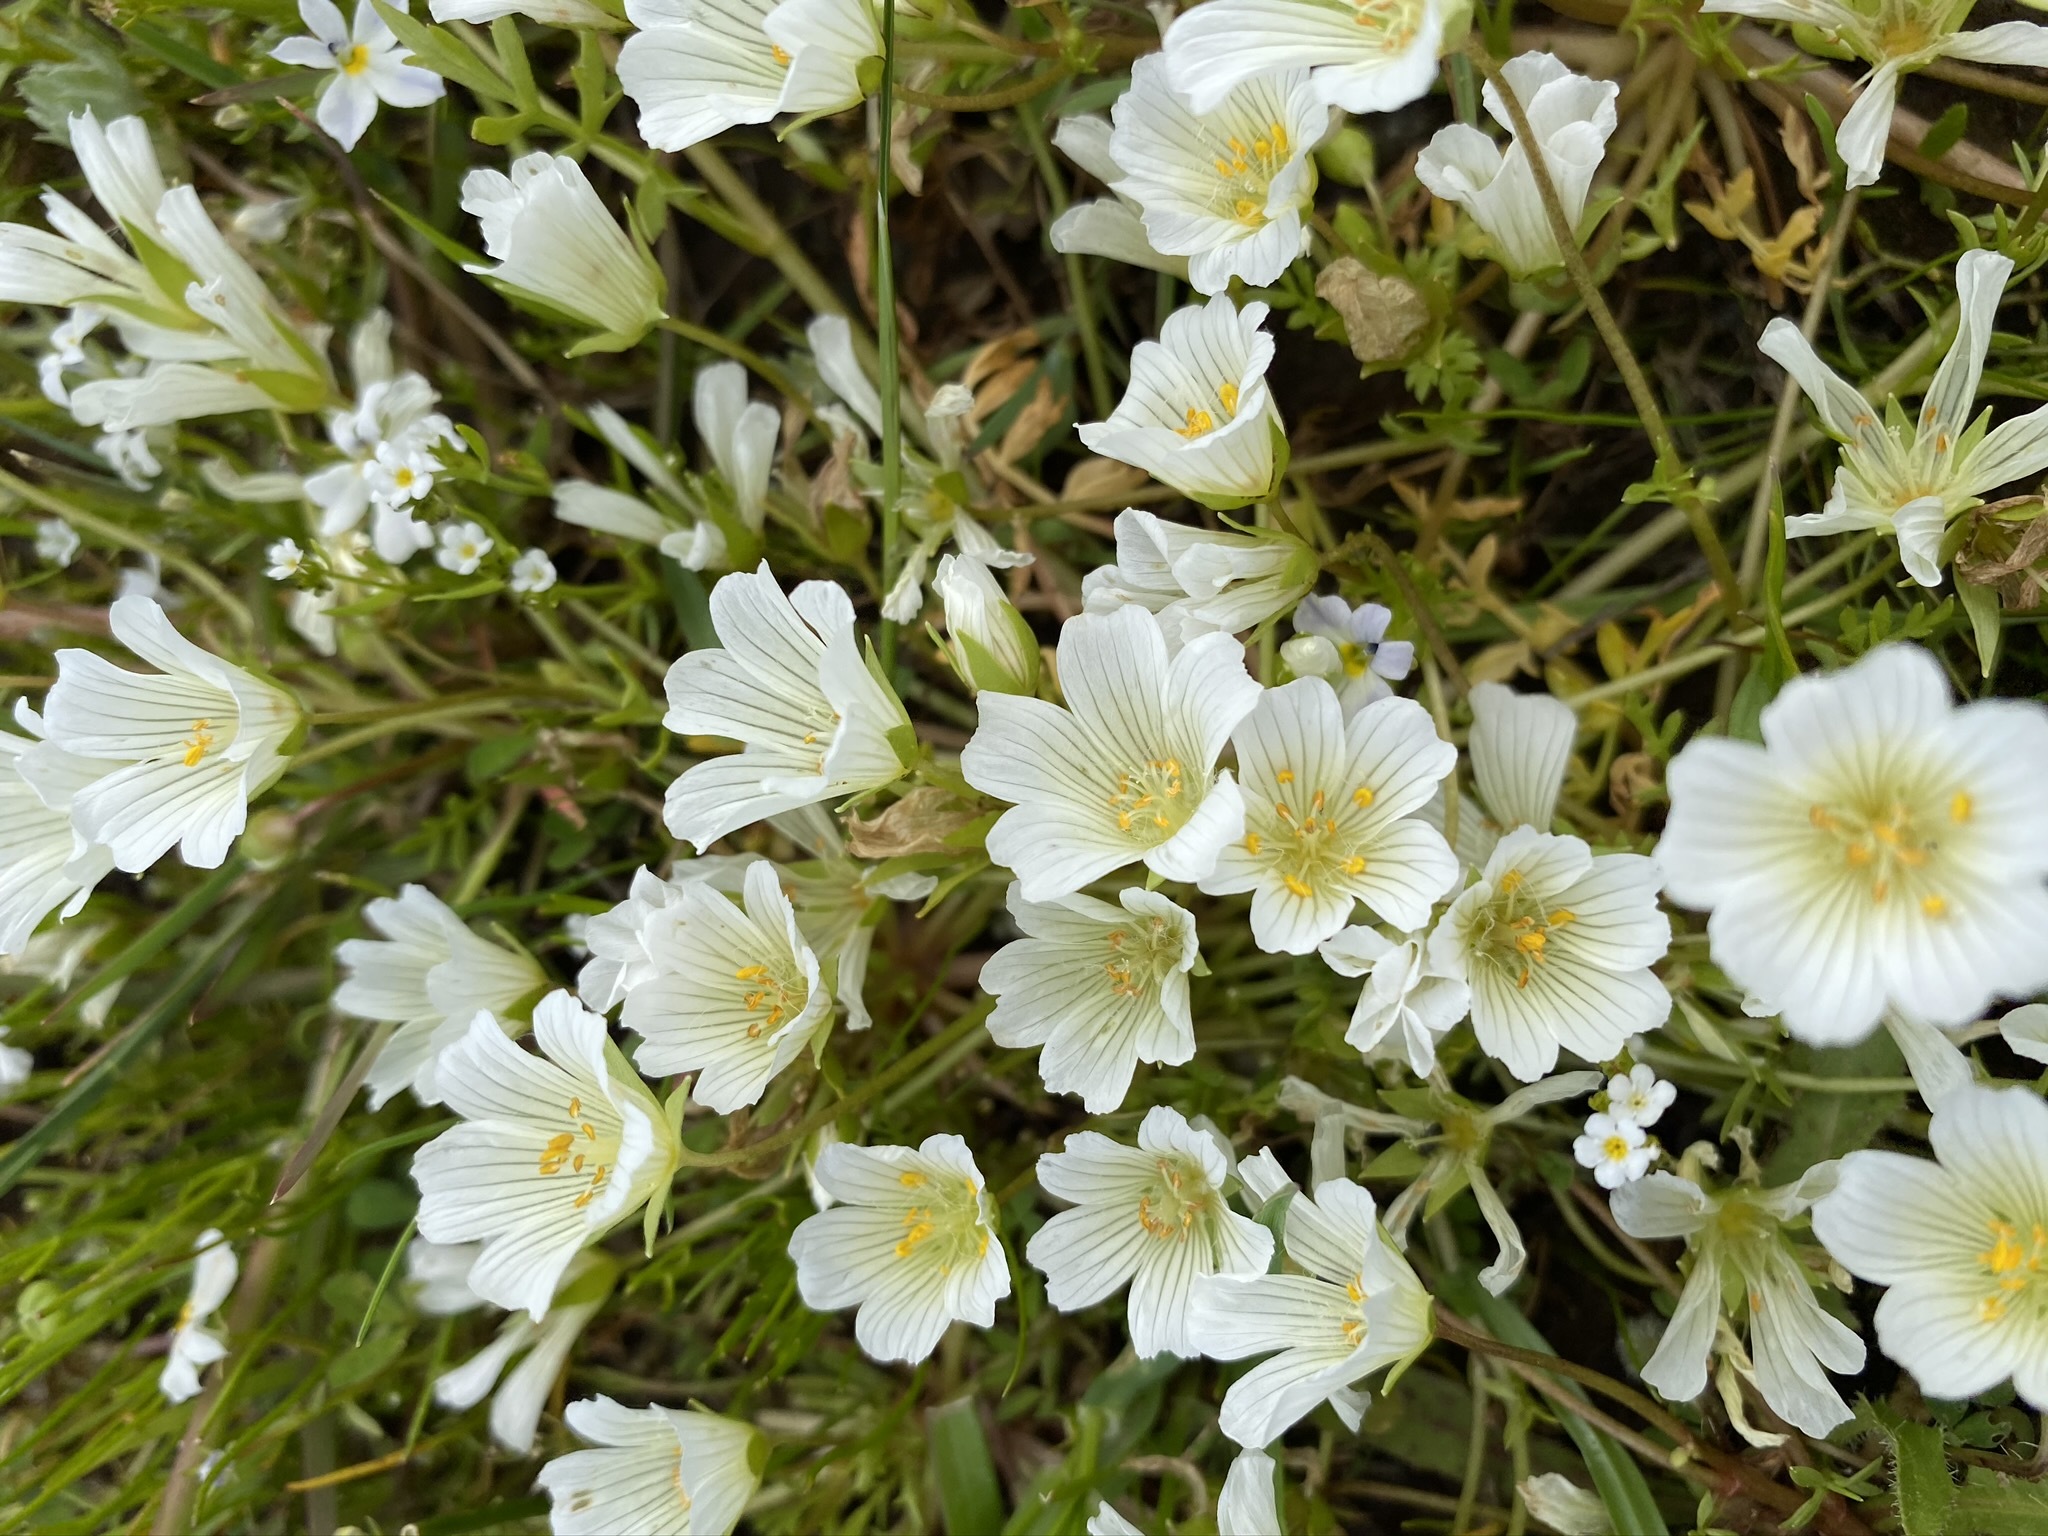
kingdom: Plantae
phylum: Tracheophyta
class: Magnoliopsida
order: Brassicales
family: Limnanthaceae
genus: Limnanthes
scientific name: Limnanthes douglasii
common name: Meadow-foam
